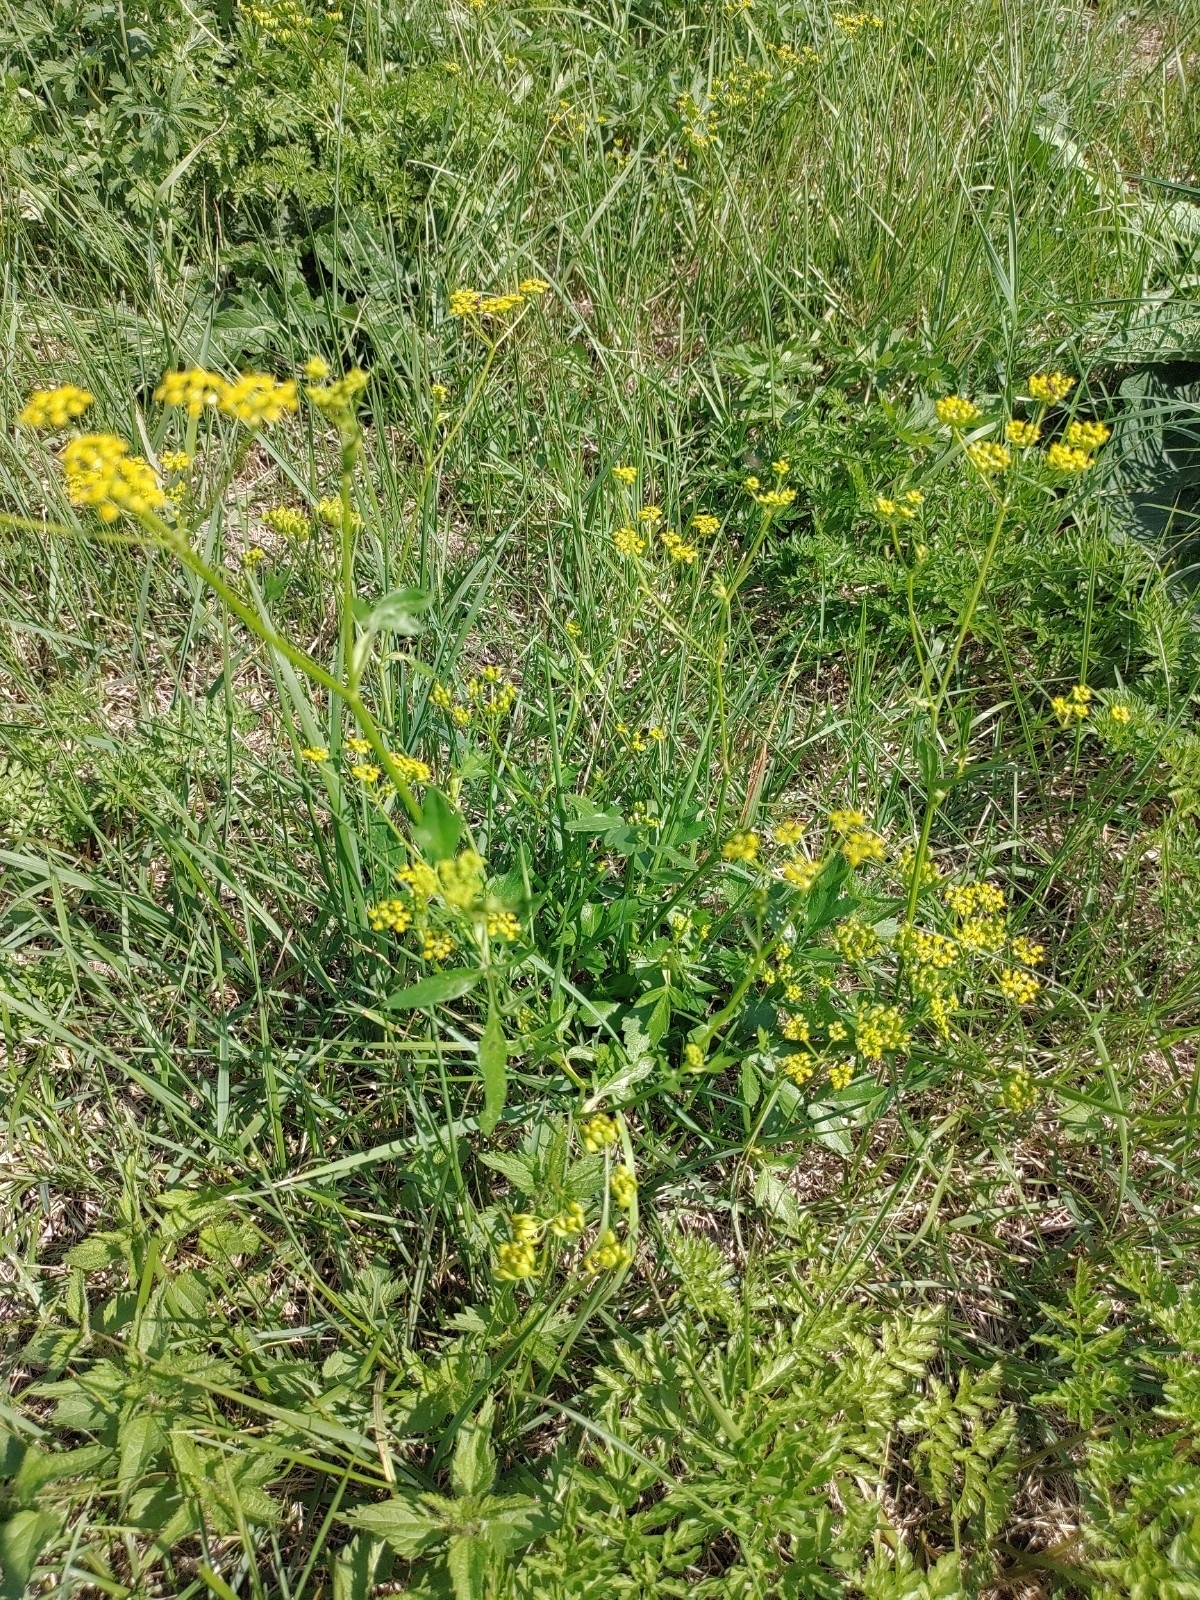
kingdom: Plantae
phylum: Tracheophyta
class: Magnoliopsida
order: Apiales
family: Apiaceae
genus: Pastinaca
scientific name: Pastinaca sativa
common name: Wild parsnip
